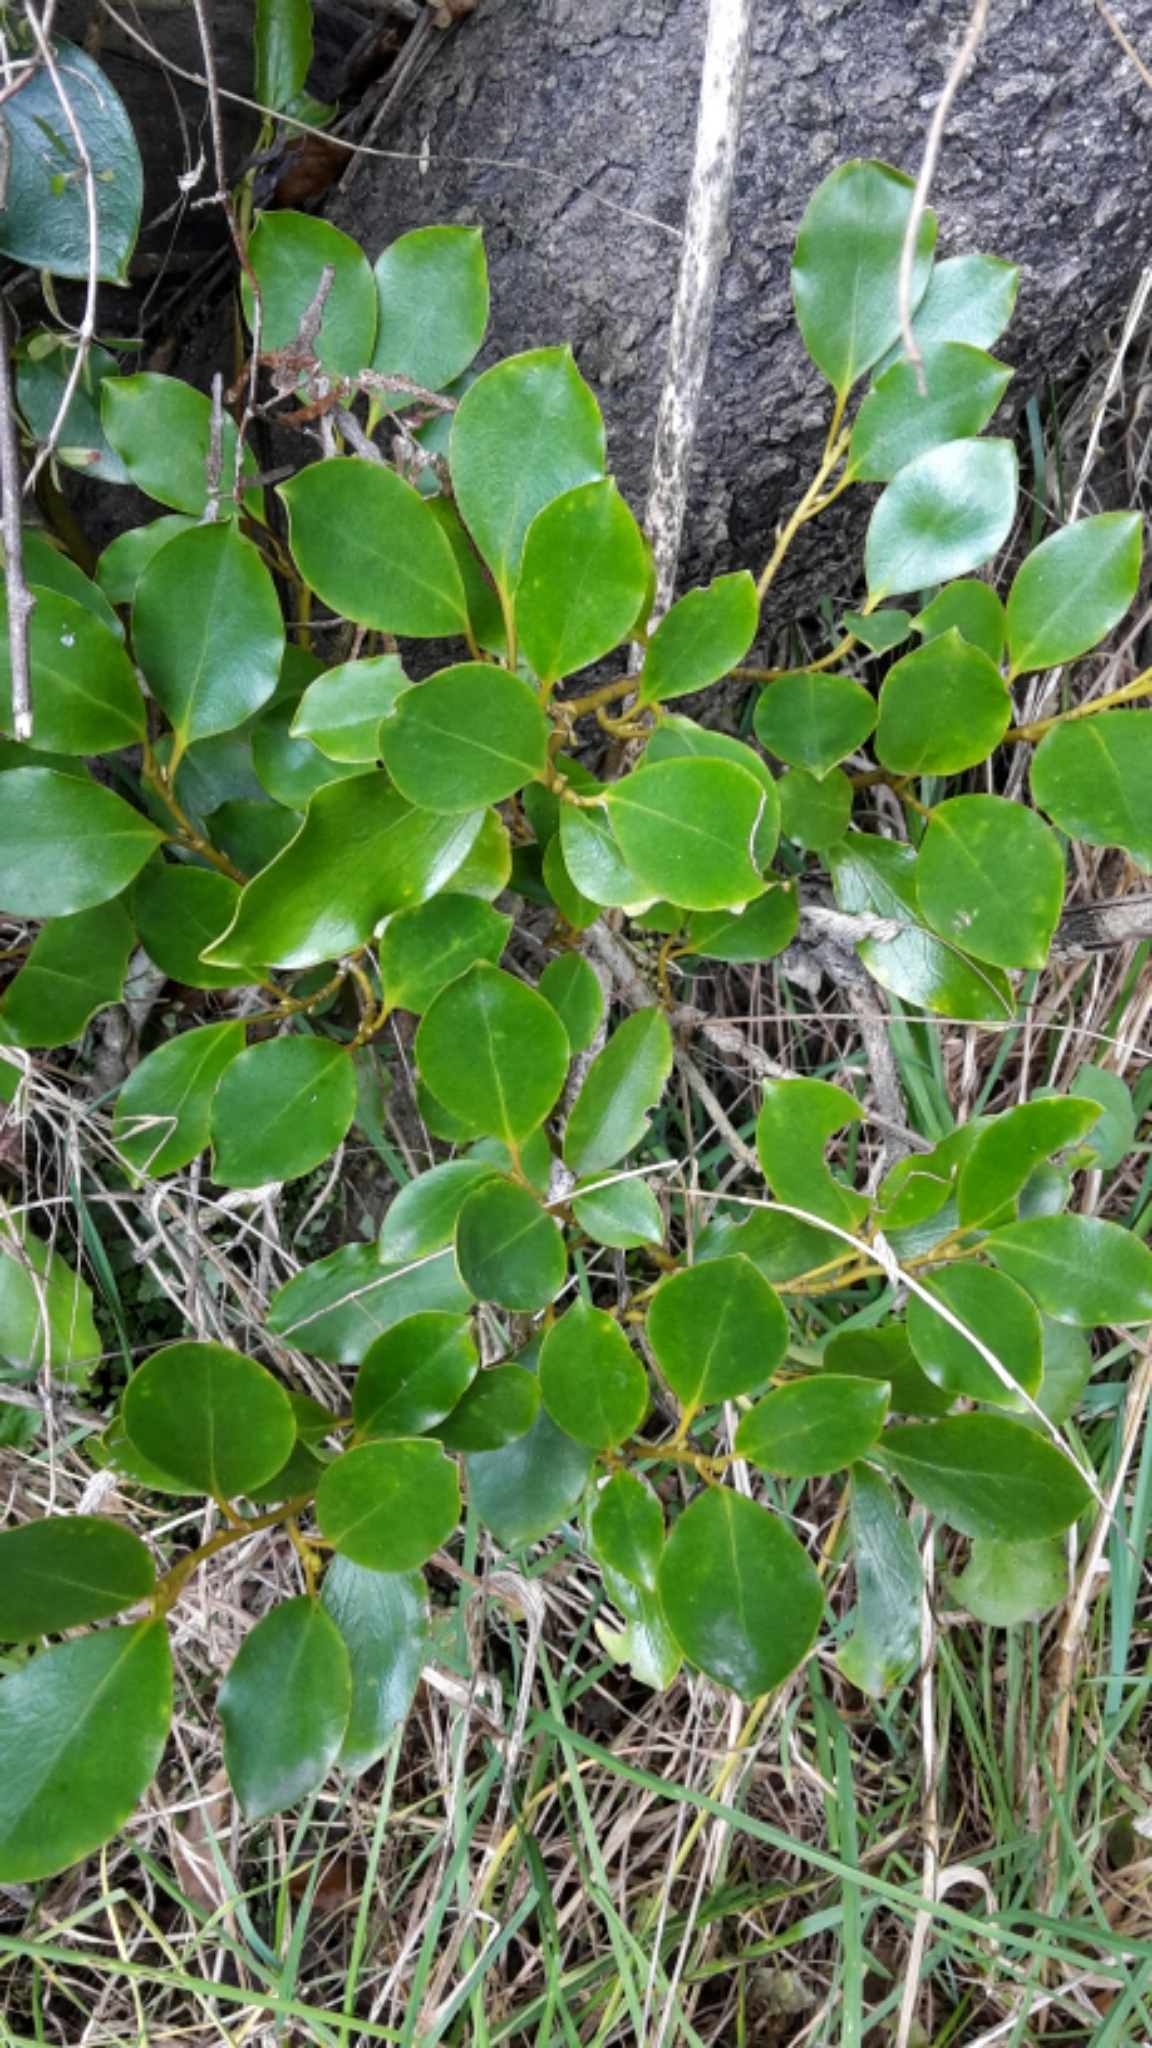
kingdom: Plantae
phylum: Tracheophyta
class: Magnoliopsida
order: Apiales
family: Griseliniaceae
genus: Griselinia
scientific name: Griselinia littoralis
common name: New zealand broadleaf
